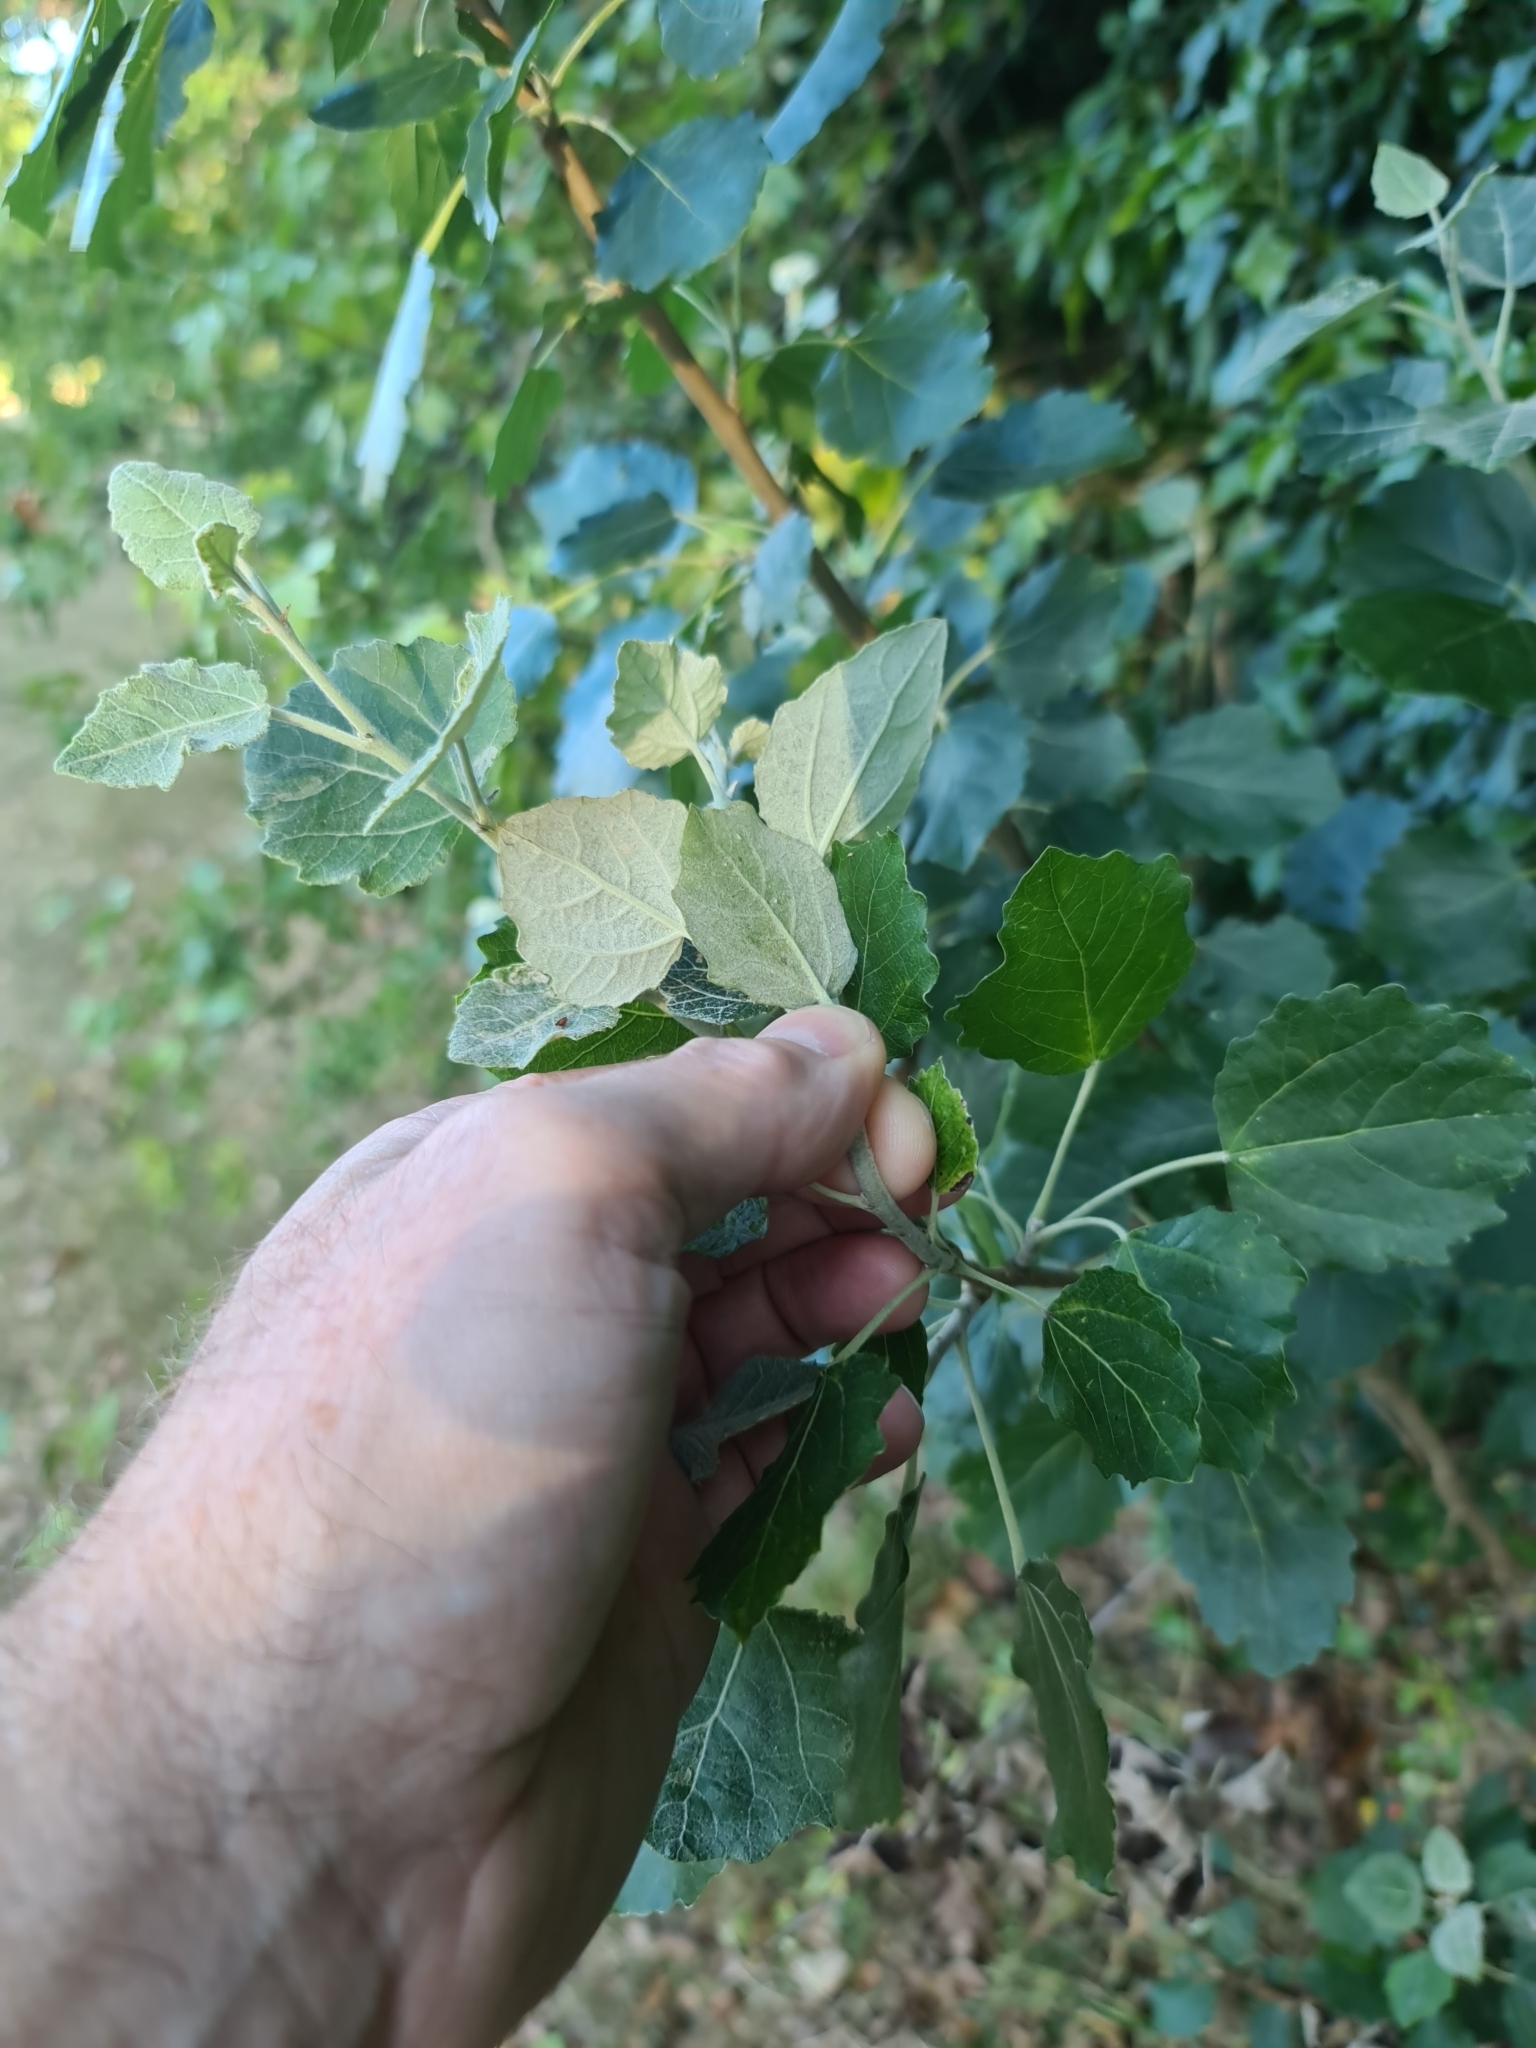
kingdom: Plantae
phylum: Tracheophyta
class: Magnoliopsida
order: Malpighiales
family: Salicaceae
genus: Populus
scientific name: Populus alba
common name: White poplar
